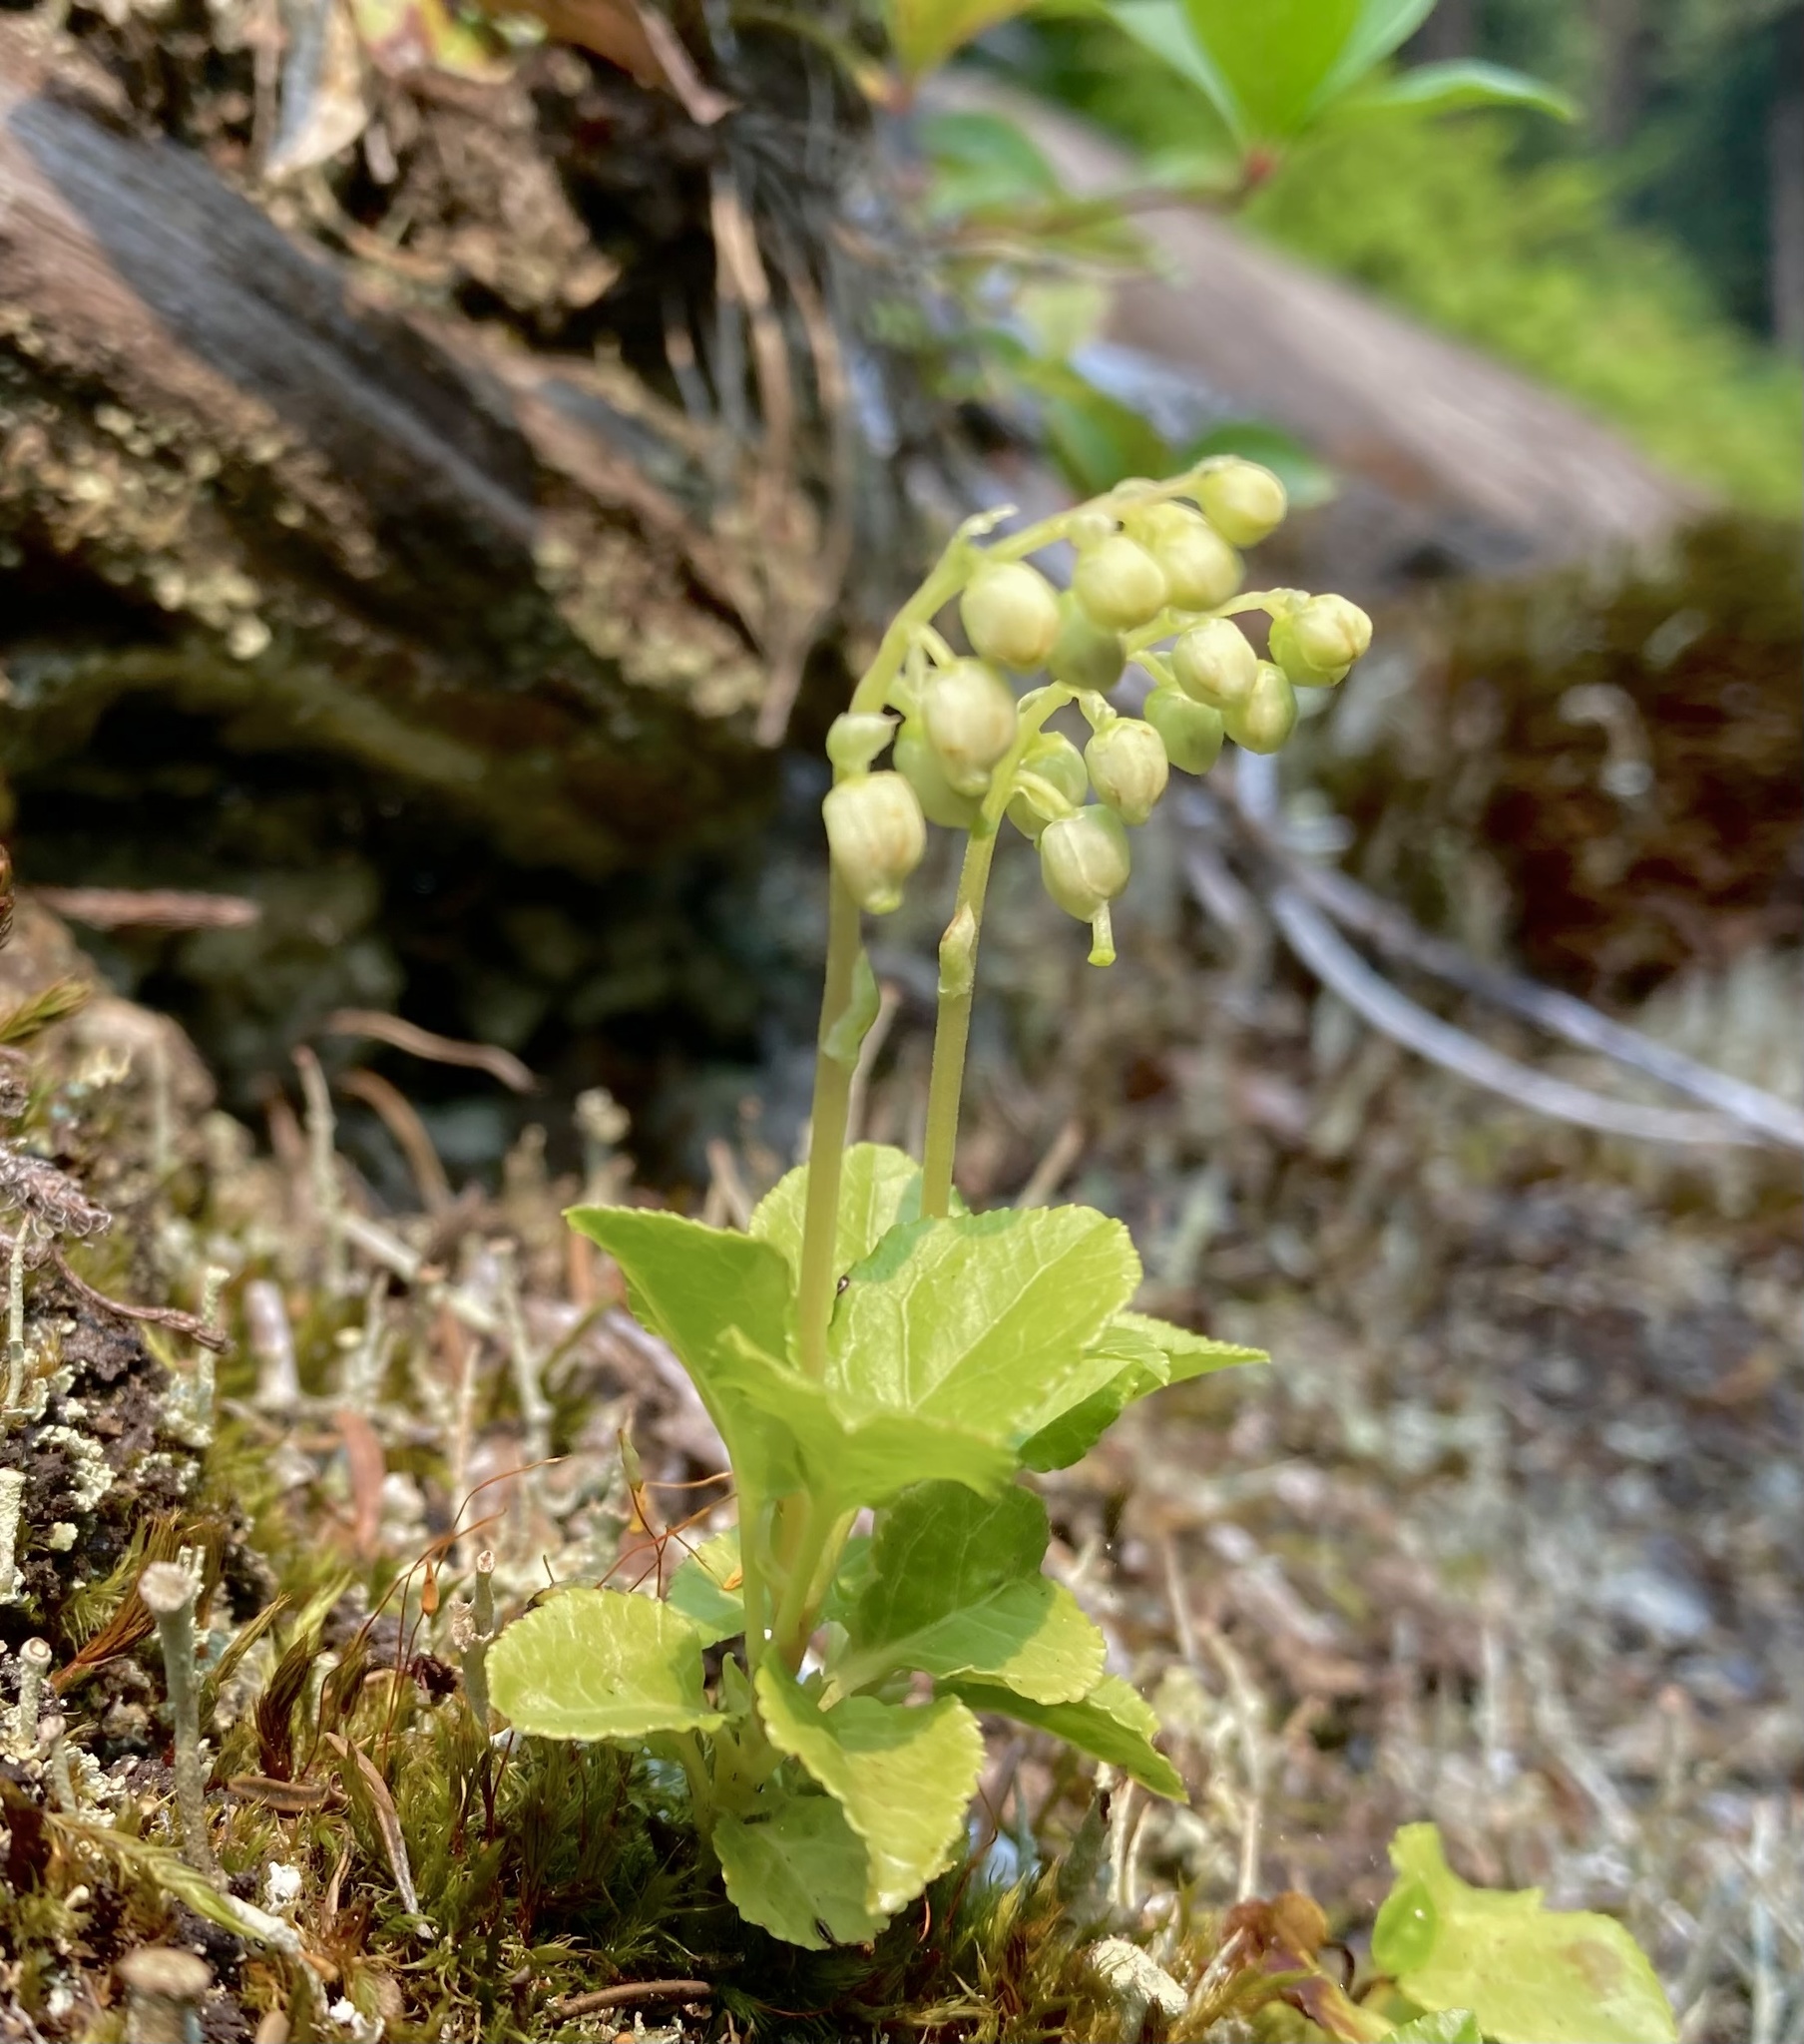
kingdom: Plantae
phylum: Tracheophyta
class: Magnoliopsida
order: Ericales
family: Ericaceae
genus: Orthilia
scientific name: Orthilia secunda
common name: One-sided orthilia
